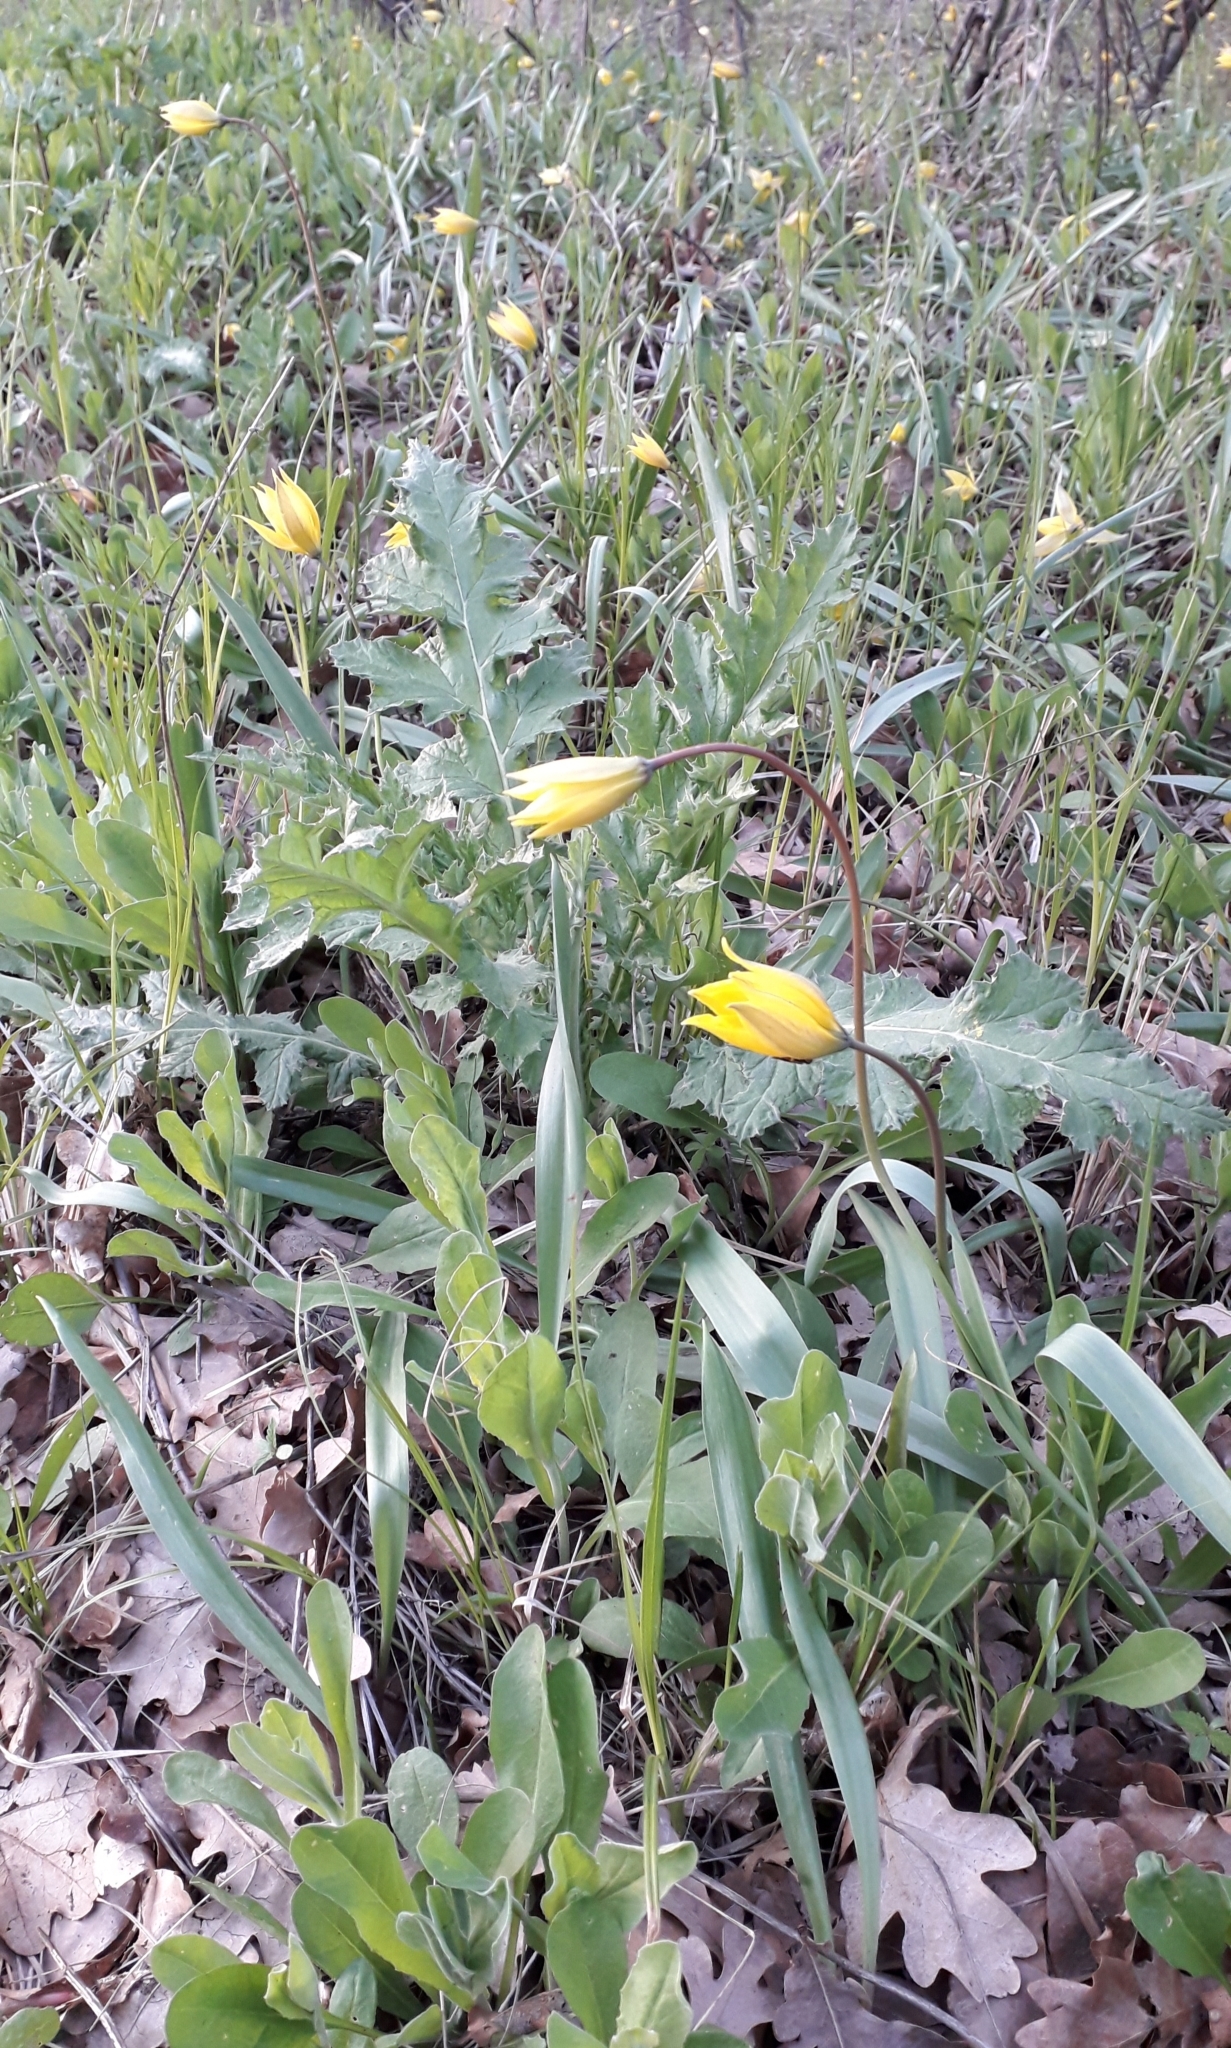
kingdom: Plantae
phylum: Tracheophyta
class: Liliopsida
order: Liliales
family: Liliaceae
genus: Tulipa
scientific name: Tulipa sylvestris
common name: Wild tulip
